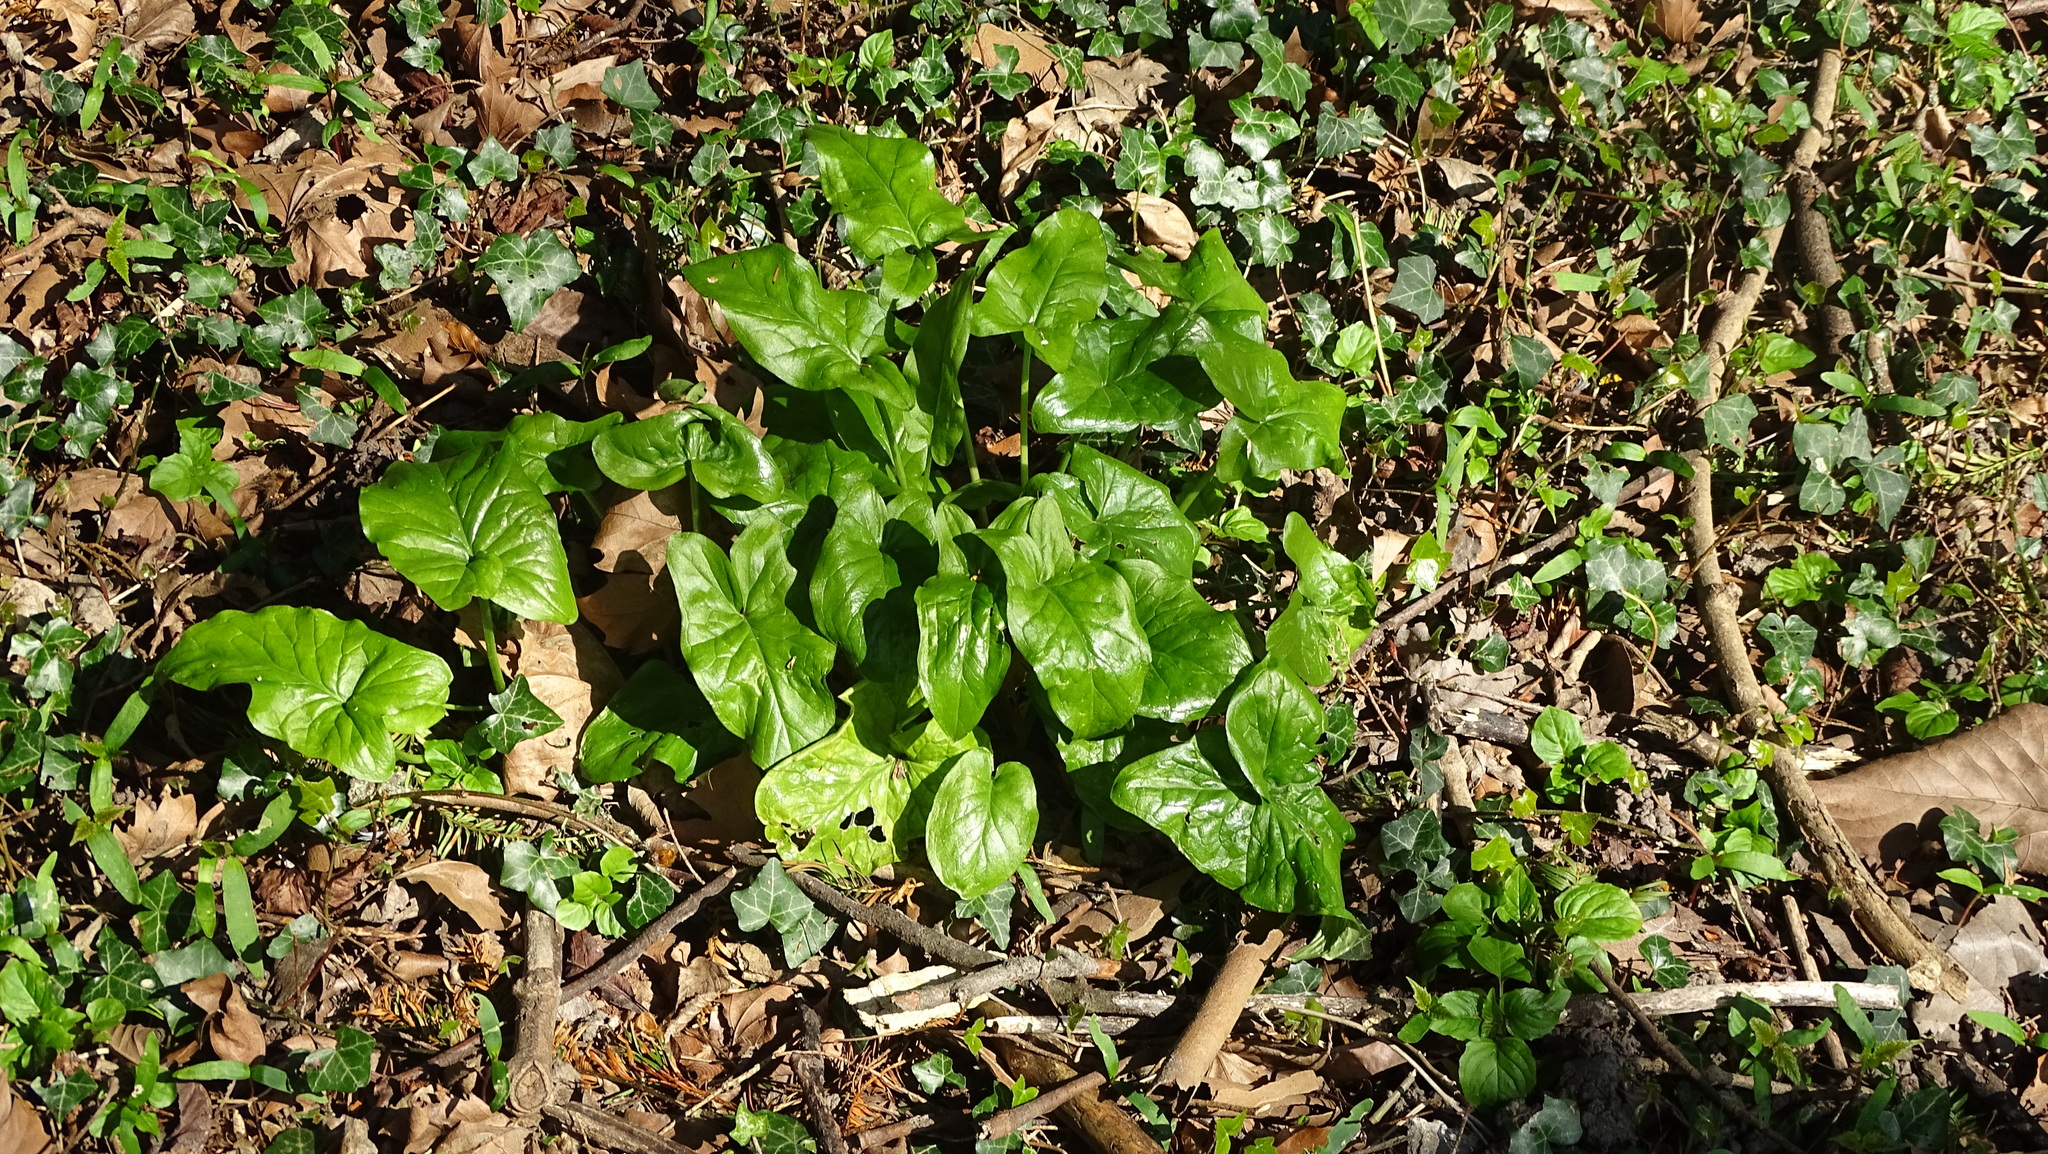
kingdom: Plantae
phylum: Tracheophyta
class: Liliopsida
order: Alismatales
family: Araceae
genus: Arum
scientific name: Arum maculatum
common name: Lords-and-ladies
